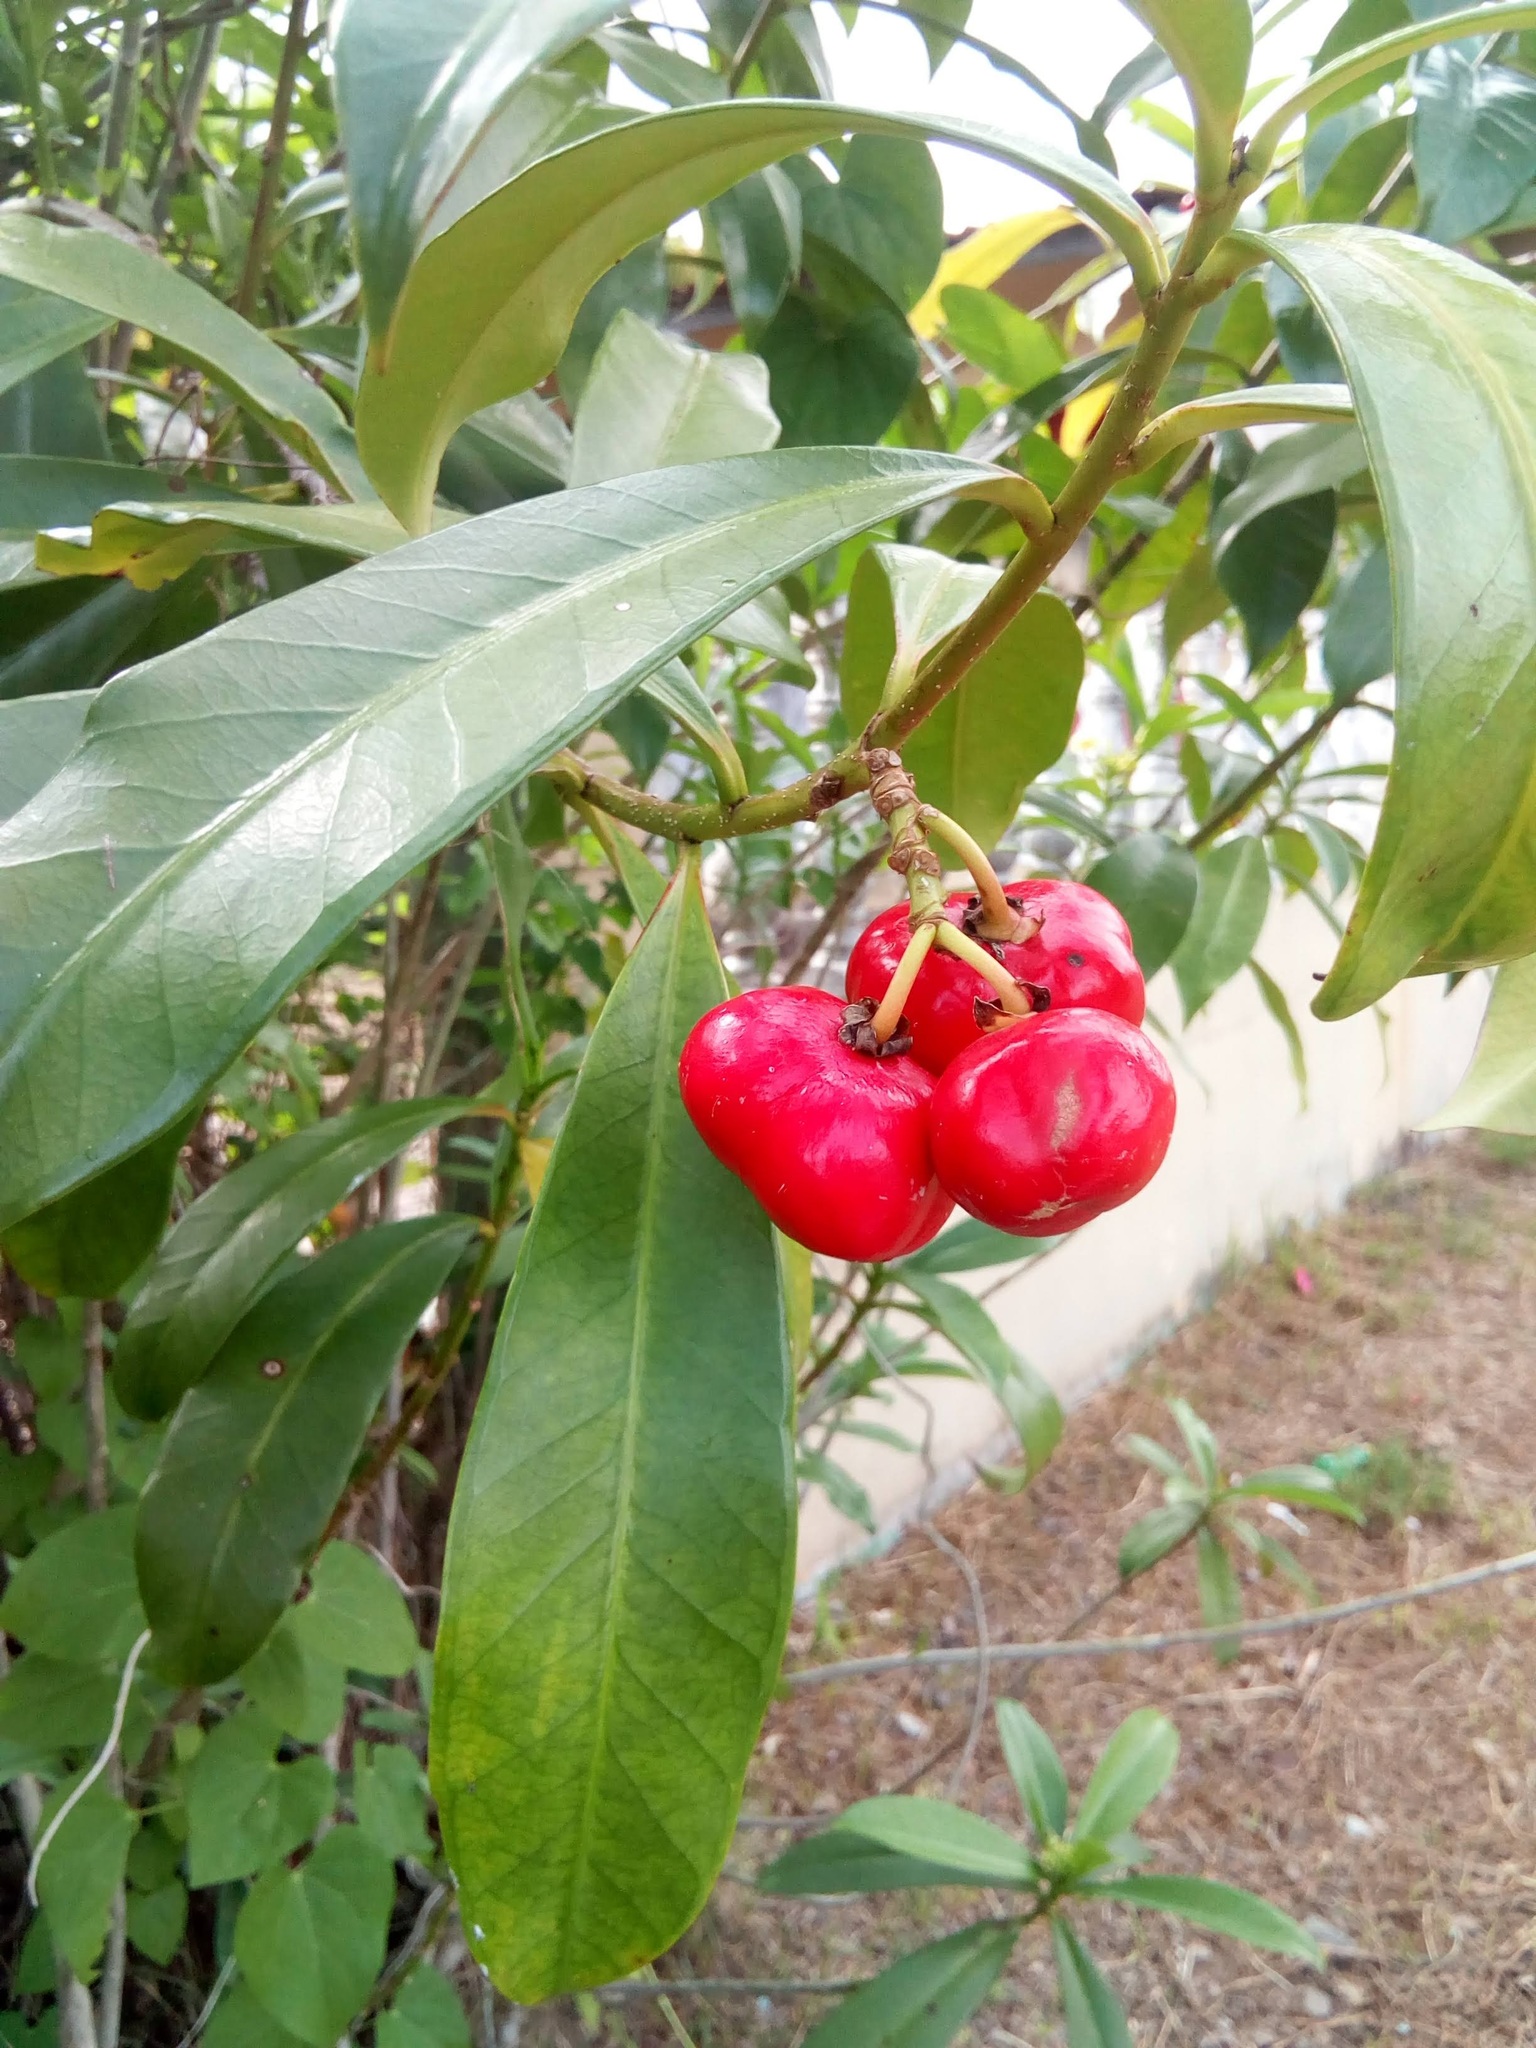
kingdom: Plantae
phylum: Tracheophyta
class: Magnoliopsida
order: Gentianales
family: Apocynaceae
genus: Thevetia
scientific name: Thevetia ahouai
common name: Broadleaf thevetia
